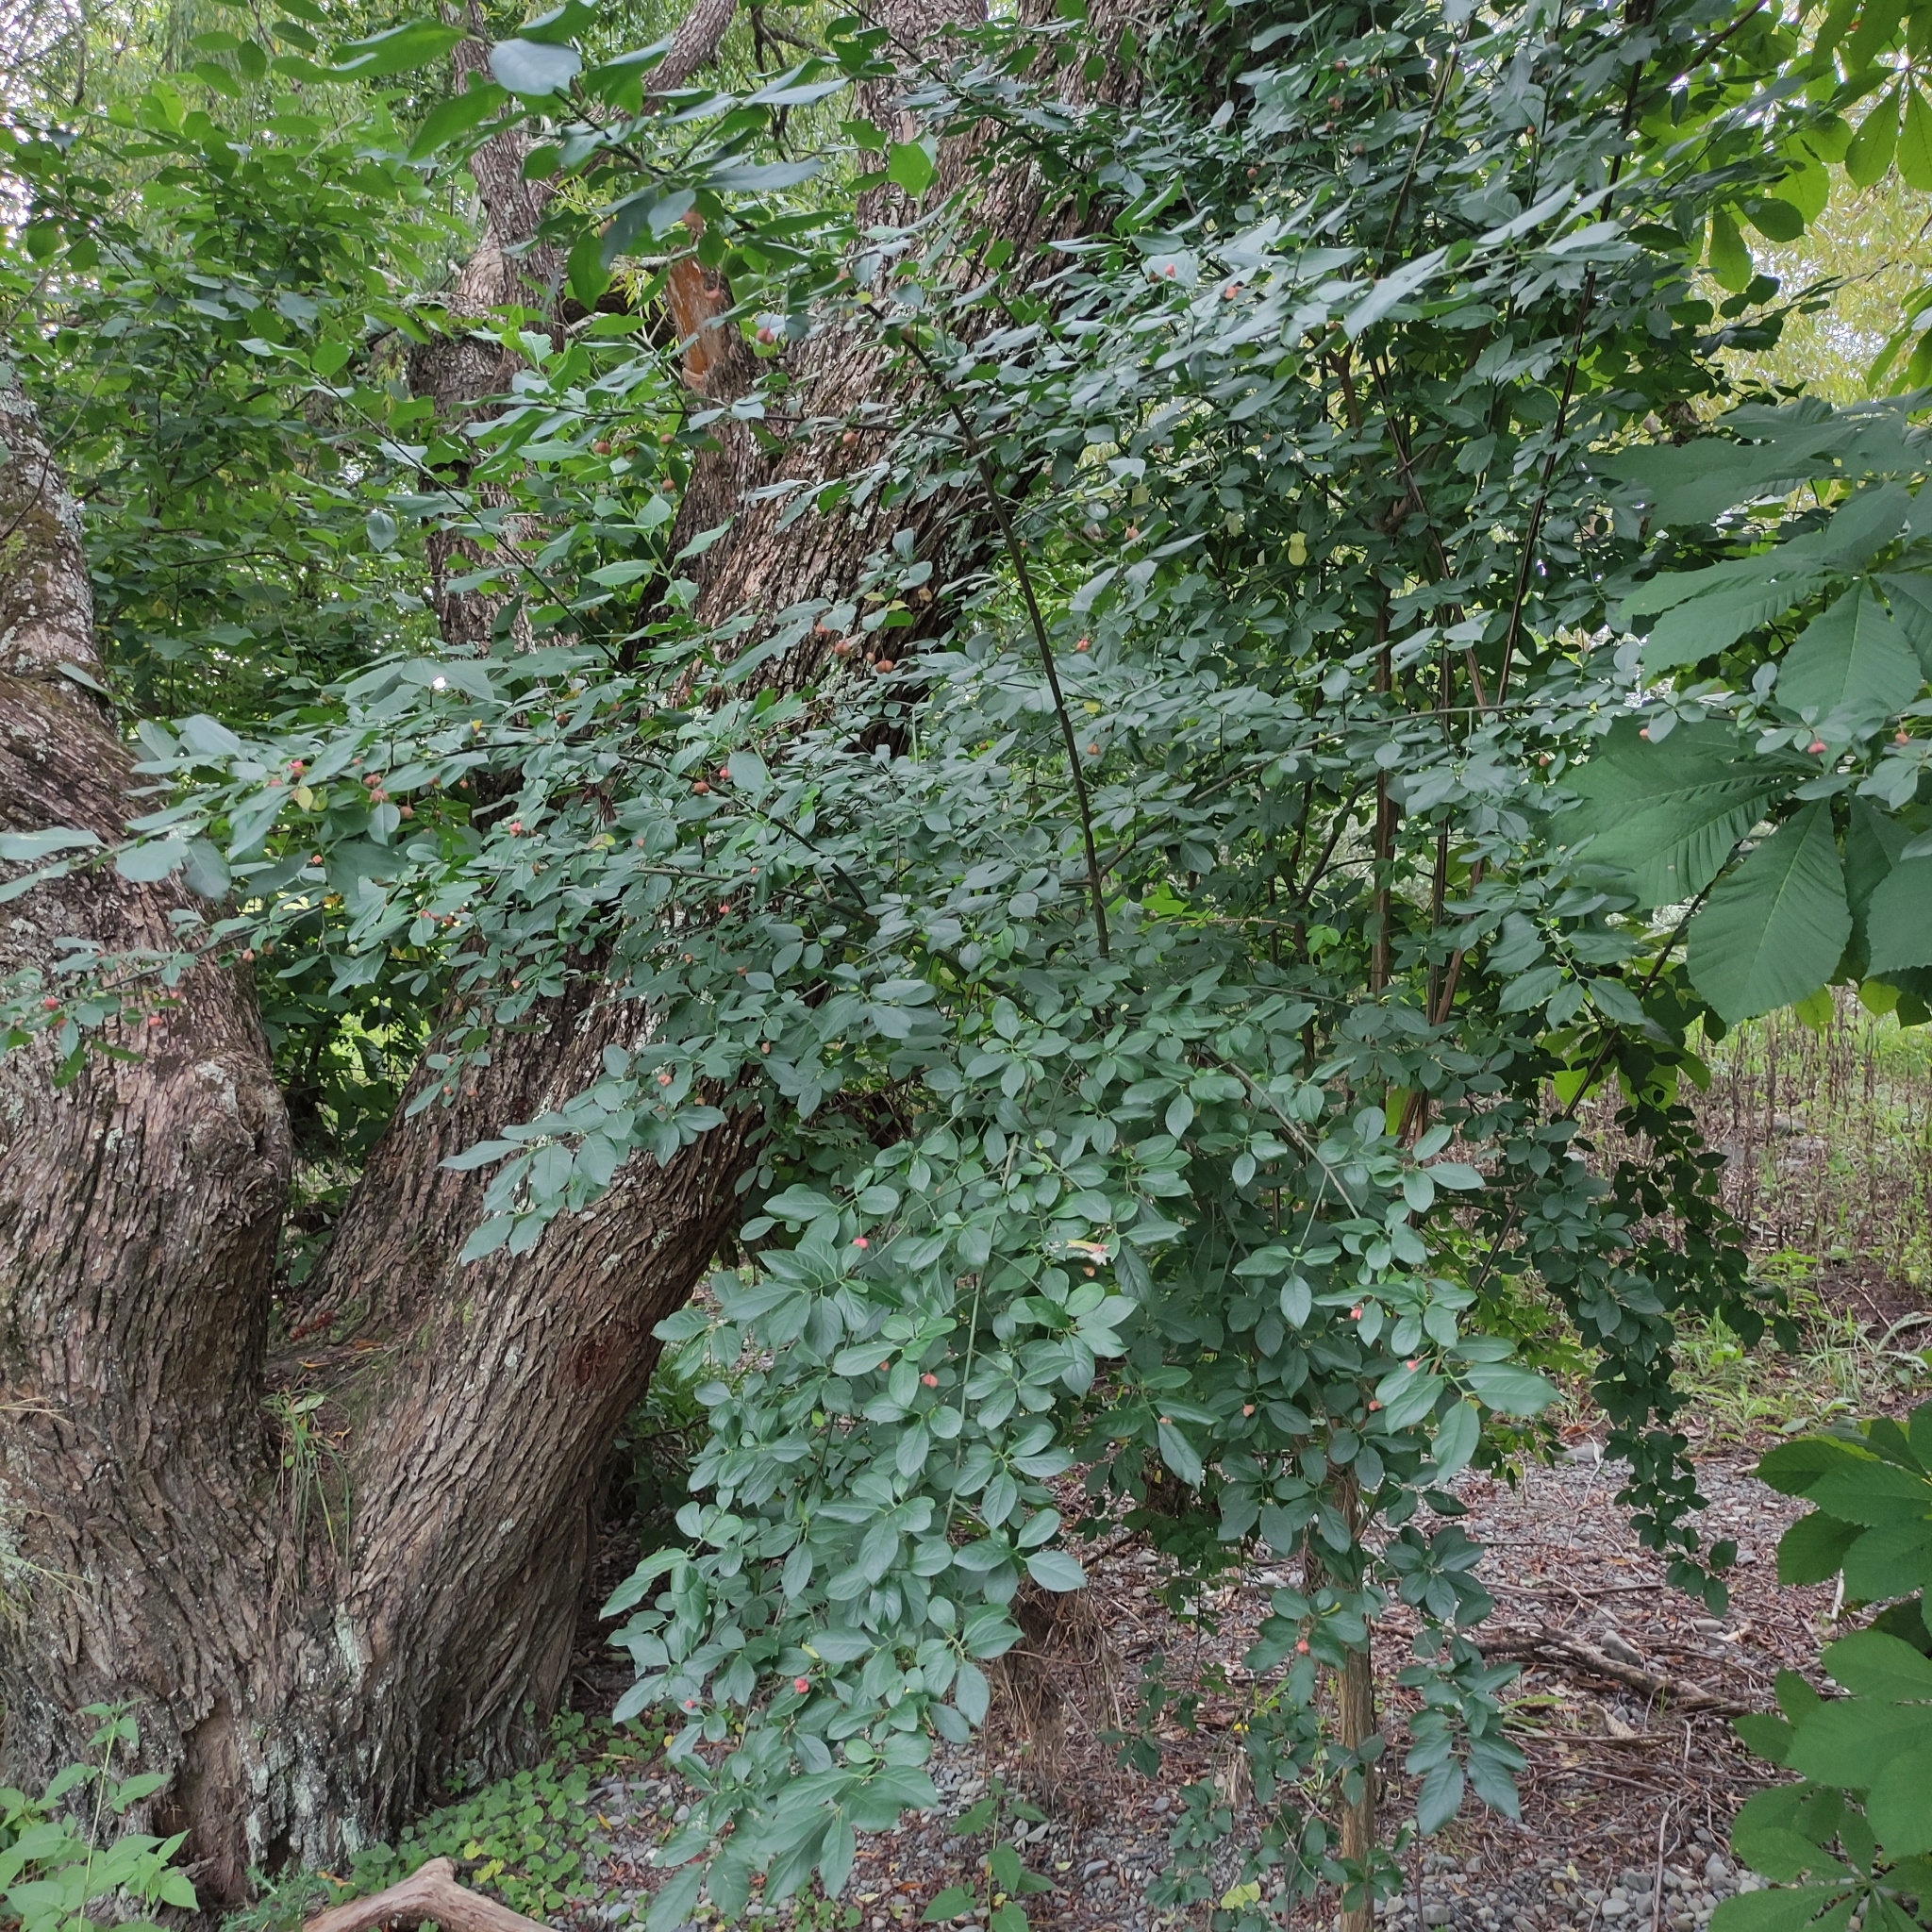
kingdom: Plantae
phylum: Tracheophyta
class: Magnoliopsida
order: Celastrales
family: Celastraceae
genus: Euonymus
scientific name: Euonymus europaeus
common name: Spindle
